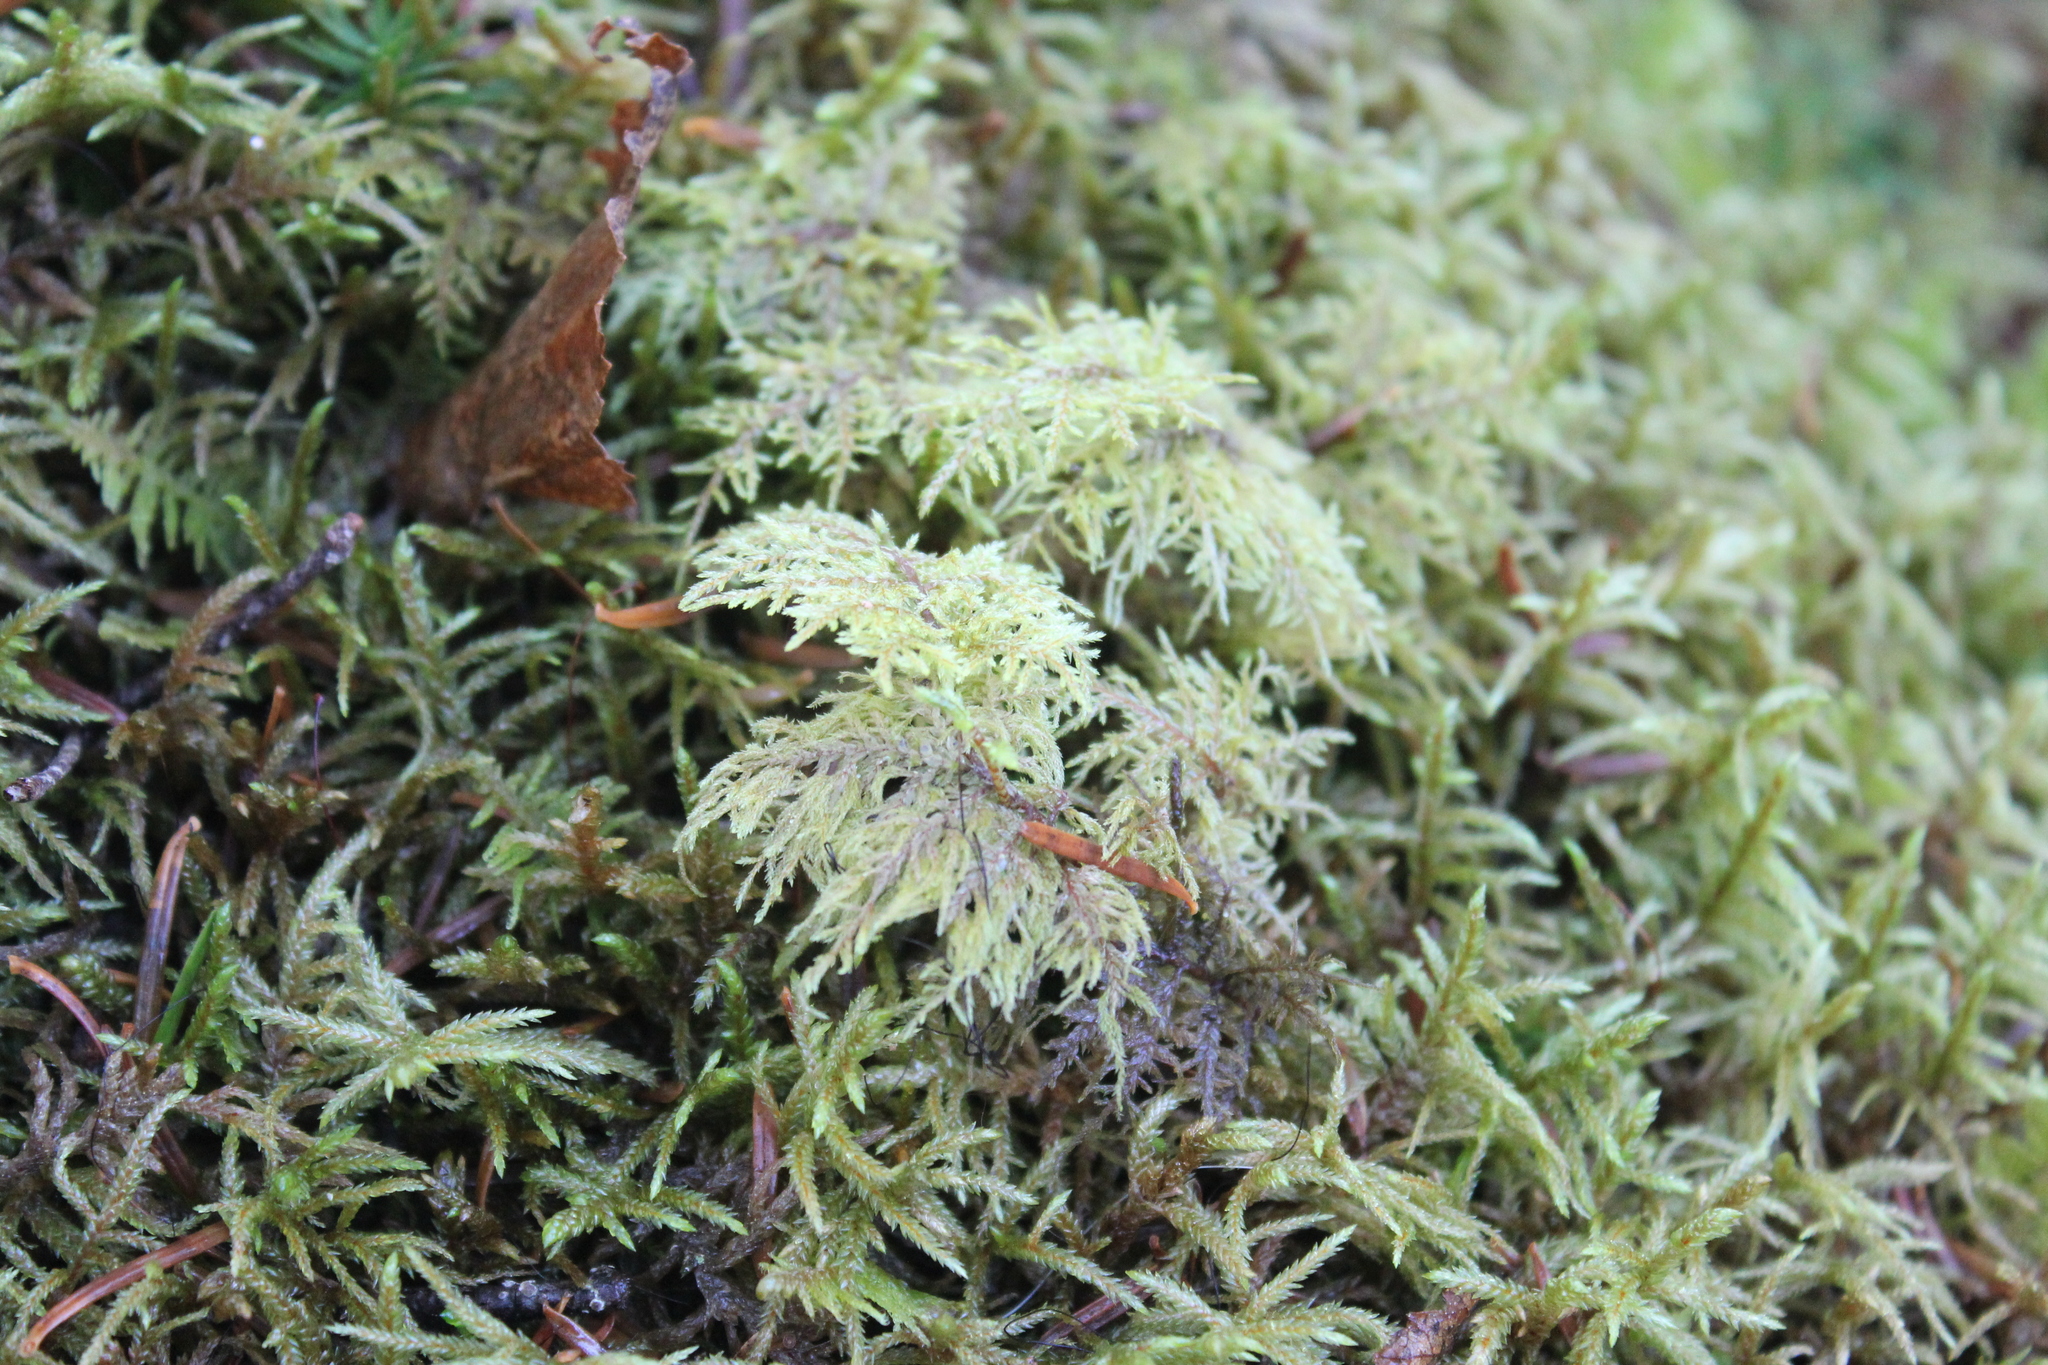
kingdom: Plantae
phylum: Bryophyta
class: Bryopsida
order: Hypnales
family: Hylocomiaceae
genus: Hylocomium
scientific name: Hylocomium splendens
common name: Stairstep moss
